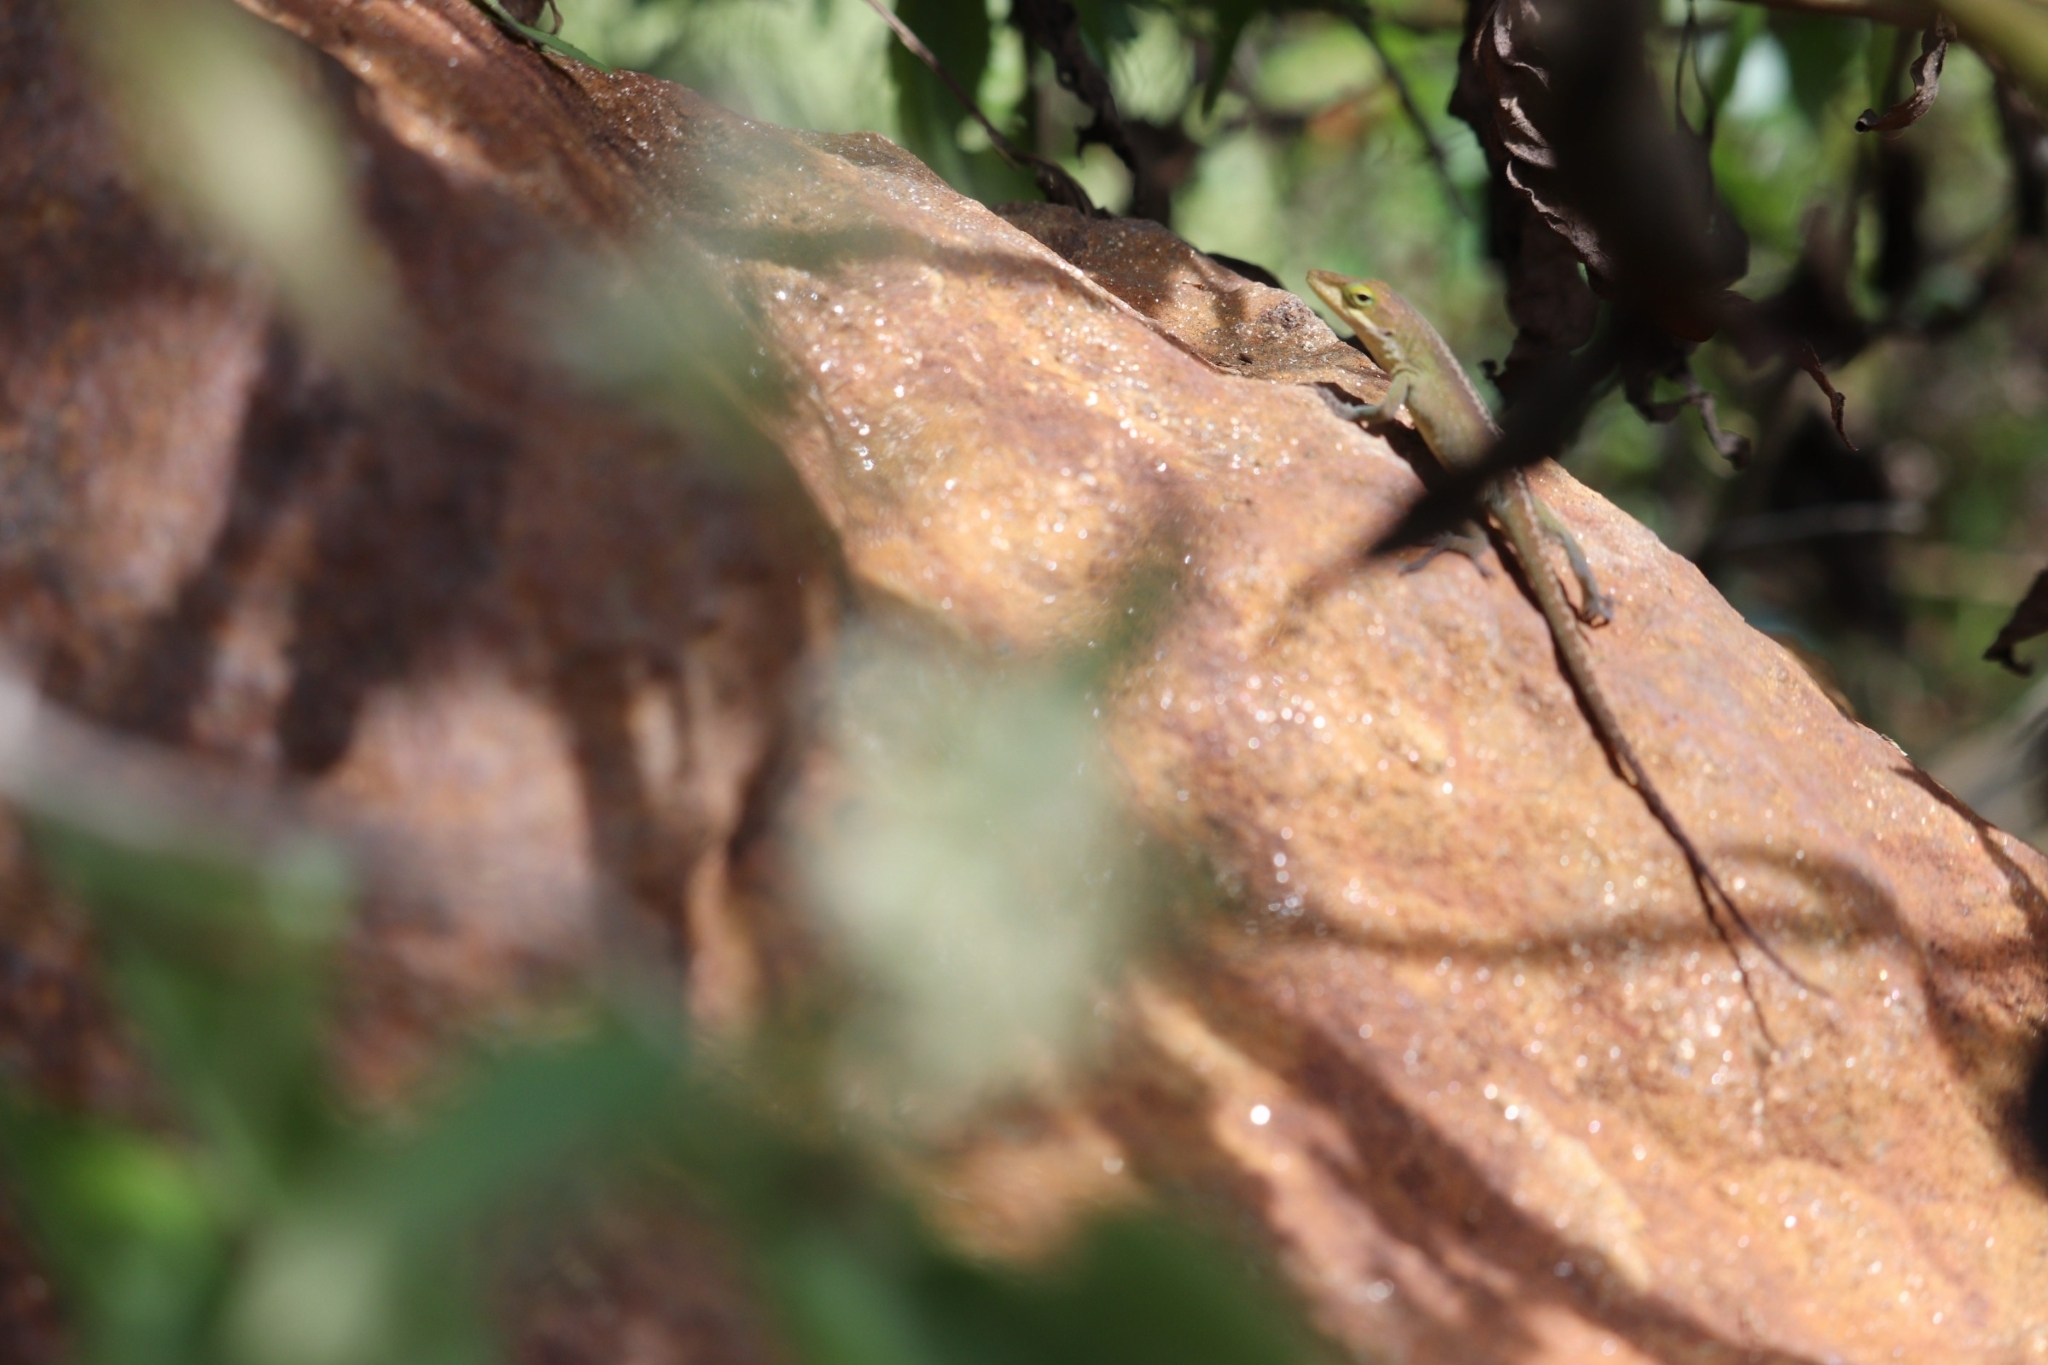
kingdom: Animalia
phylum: Chordata
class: Squamata
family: Dactyloidae
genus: Anolis
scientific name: Anolis carolinensis
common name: Green anole
